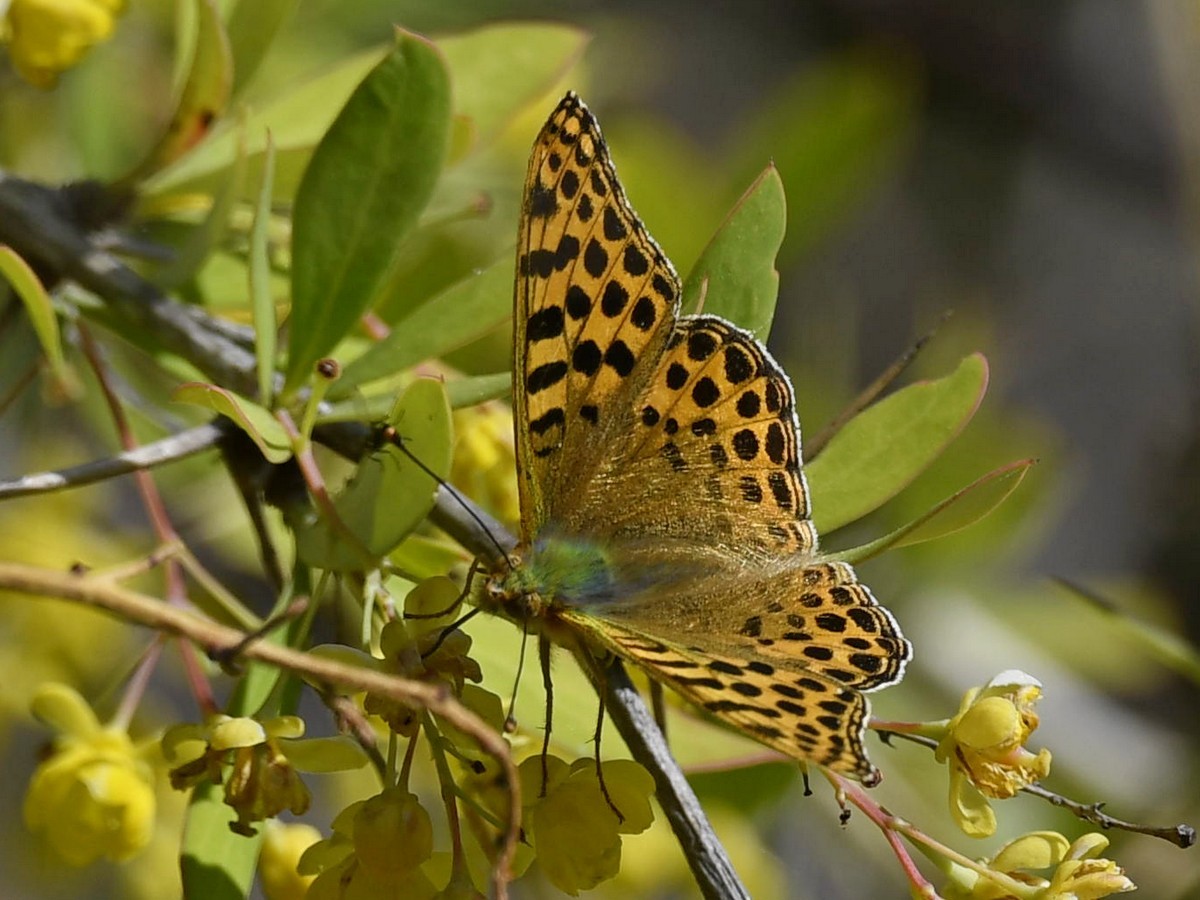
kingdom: Animalia
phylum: Arthropoda
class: Insecta
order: Lepidoptera
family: Nymphalidae
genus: Issoria
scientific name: Issoria
